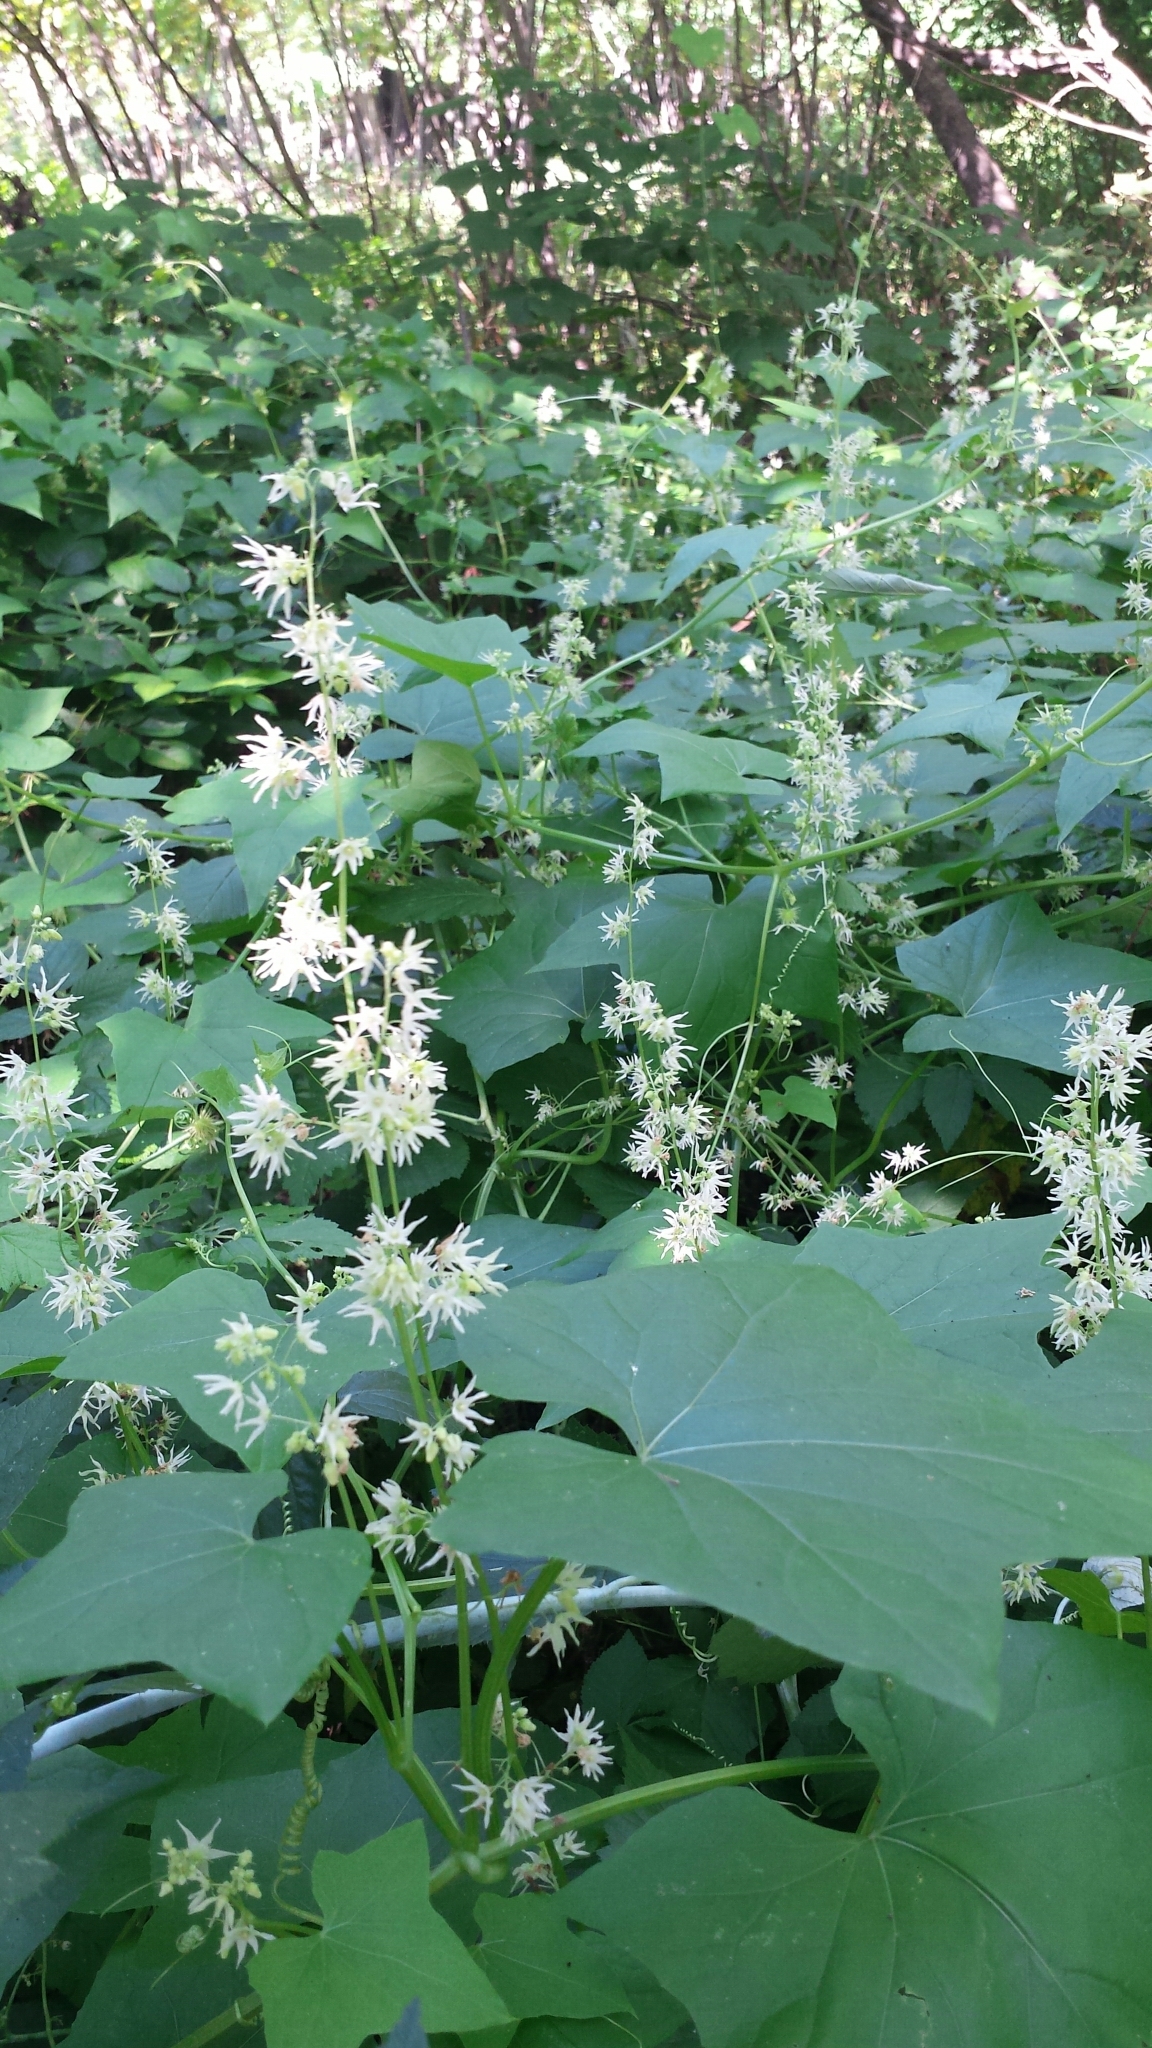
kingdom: Plantae
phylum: Tracheophyta
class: Magnoliopsida
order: Cucurbitales
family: Cucurbitaceae
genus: Echinocystis
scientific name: Echinocystis lobata
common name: Wild cucumber
